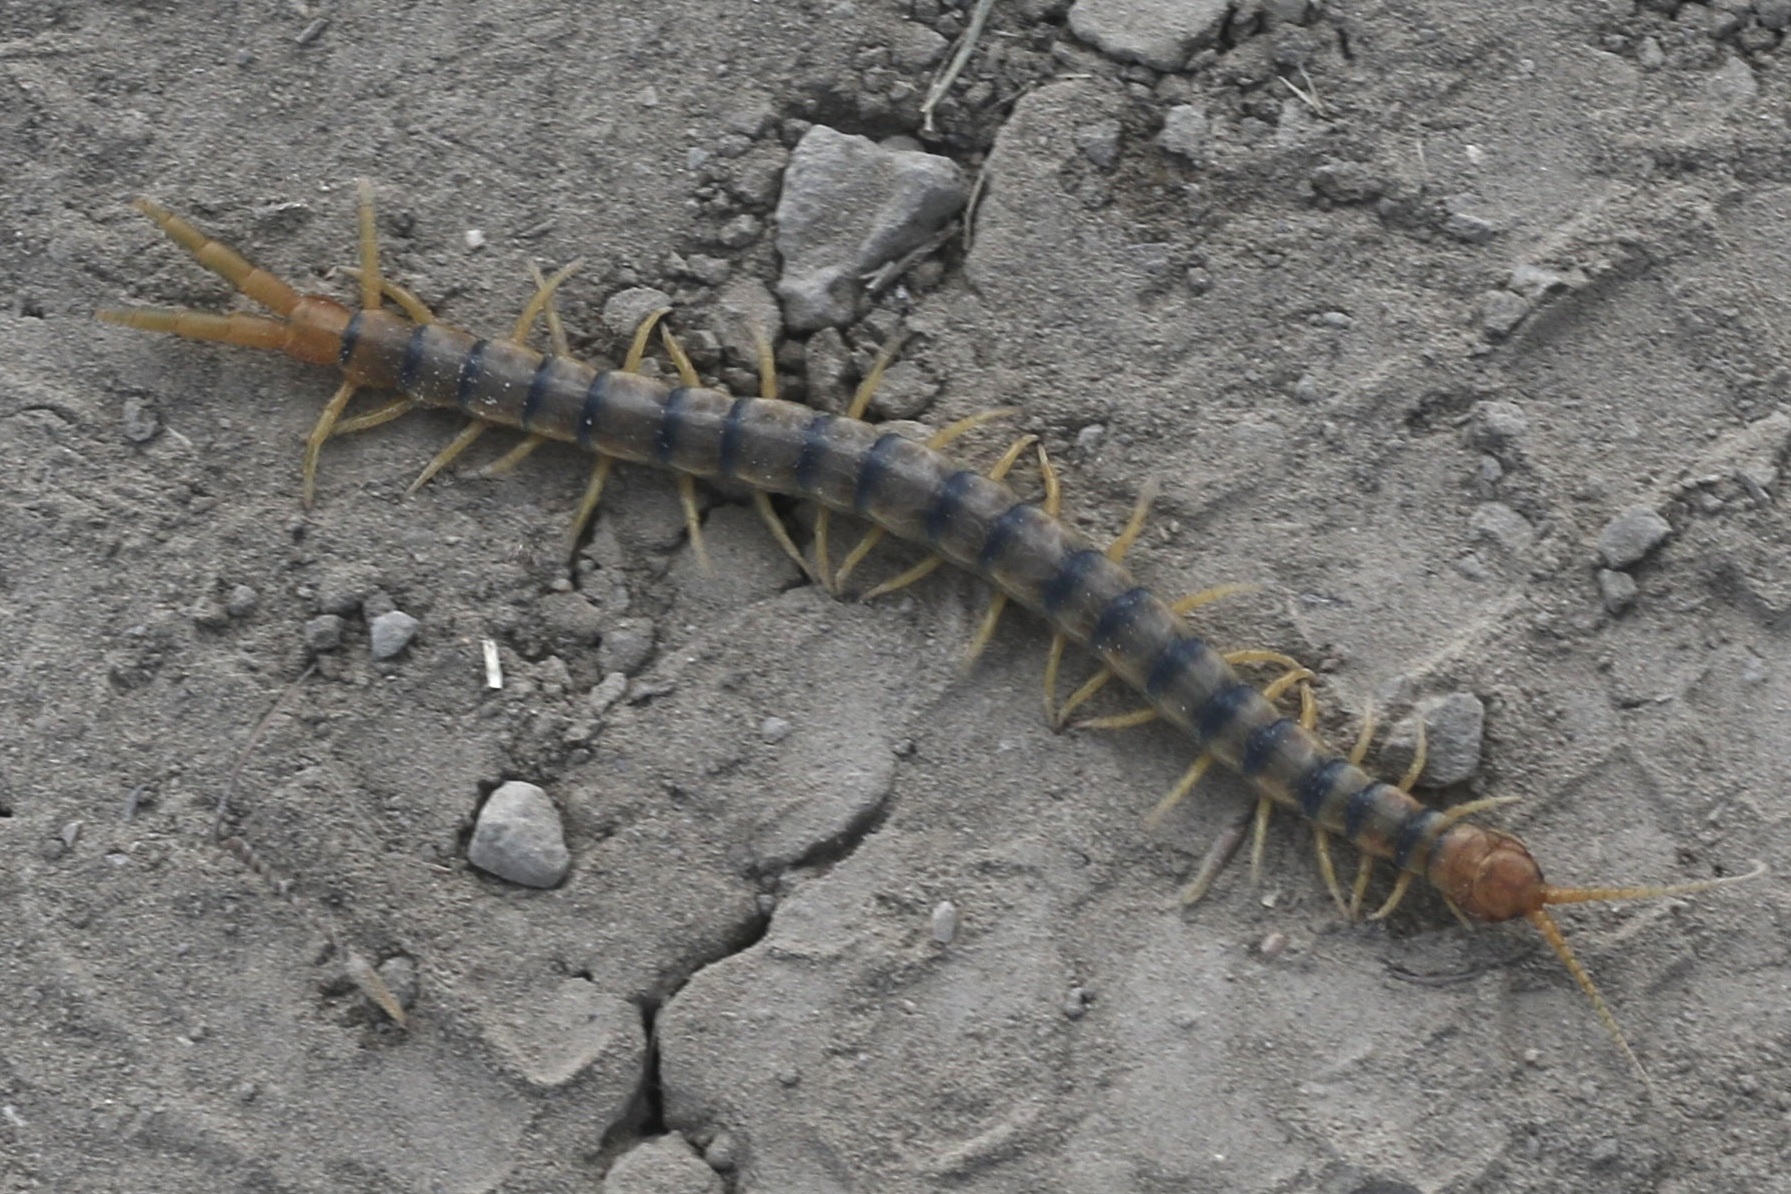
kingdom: Animalia
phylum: Arthropoda
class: Chilopoda
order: Scolopendromorpha
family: Scolopendridae
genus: Scolopendra
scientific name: Scolopendra polymorpha
